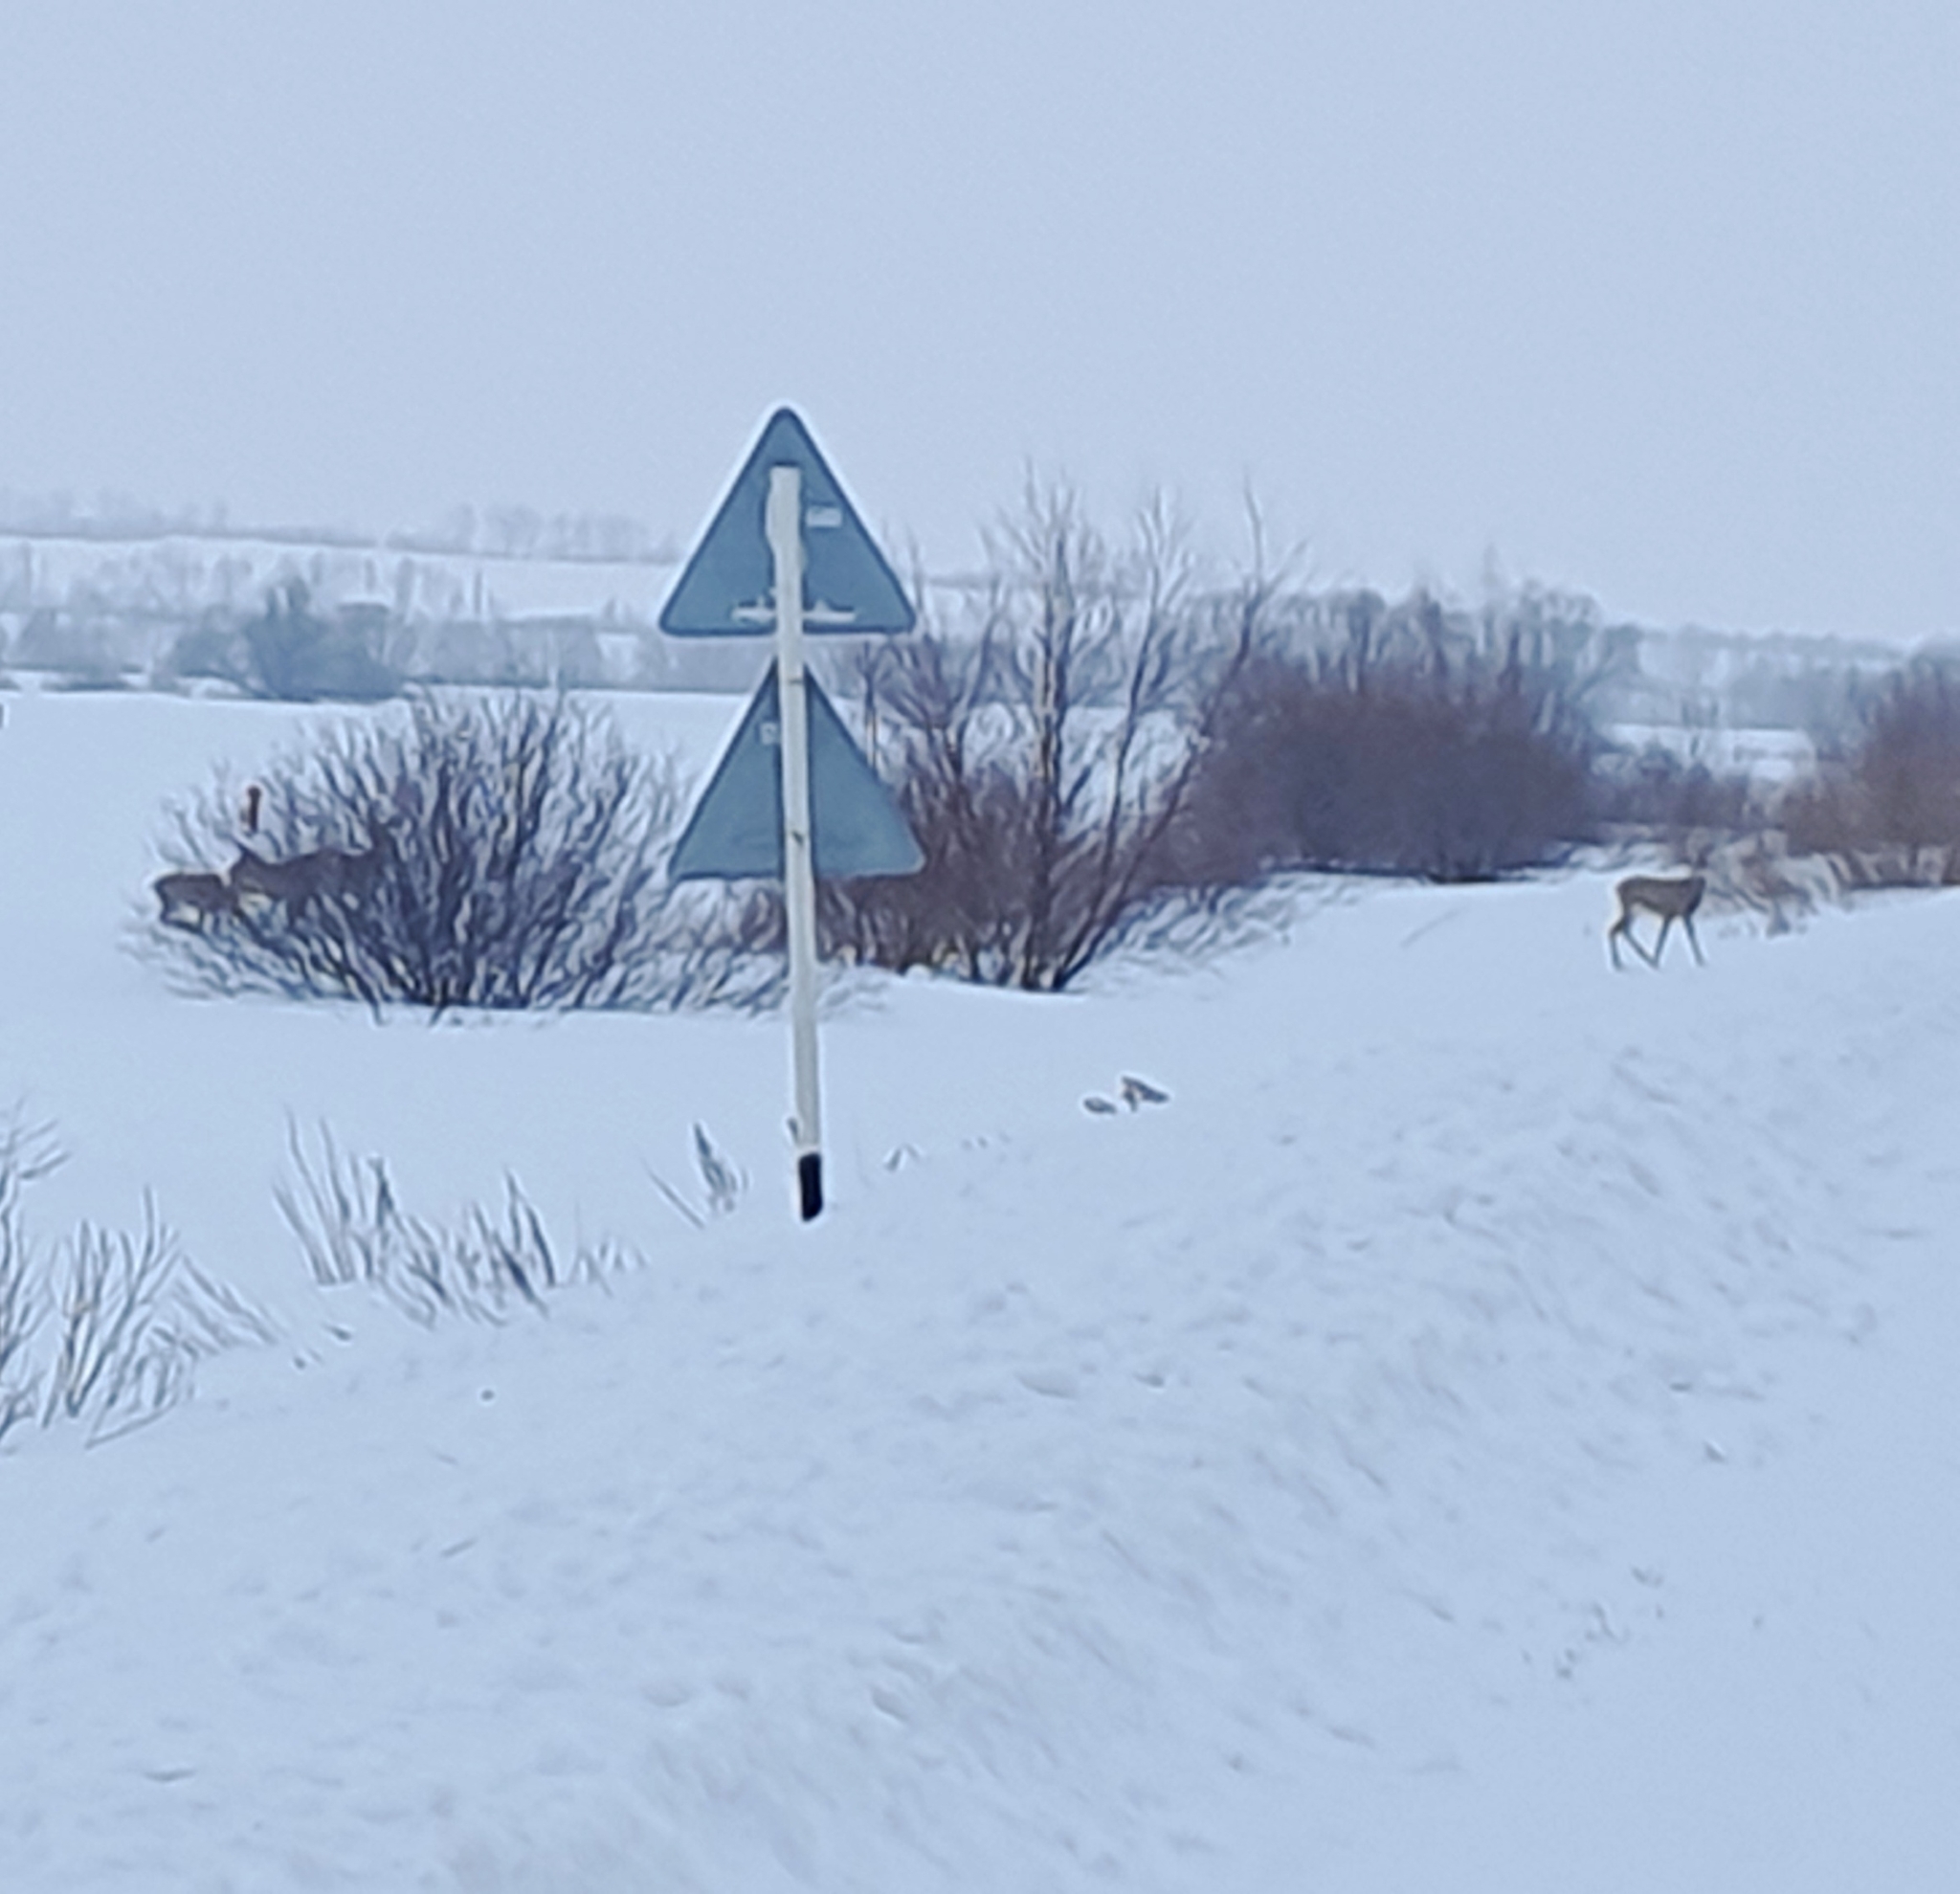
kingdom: Animalia
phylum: Chordata
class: Mammalia
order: Artiodactyla
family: Cervidae
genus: Capreolus
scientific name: Capreolus pygargus
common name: Siberian roe
